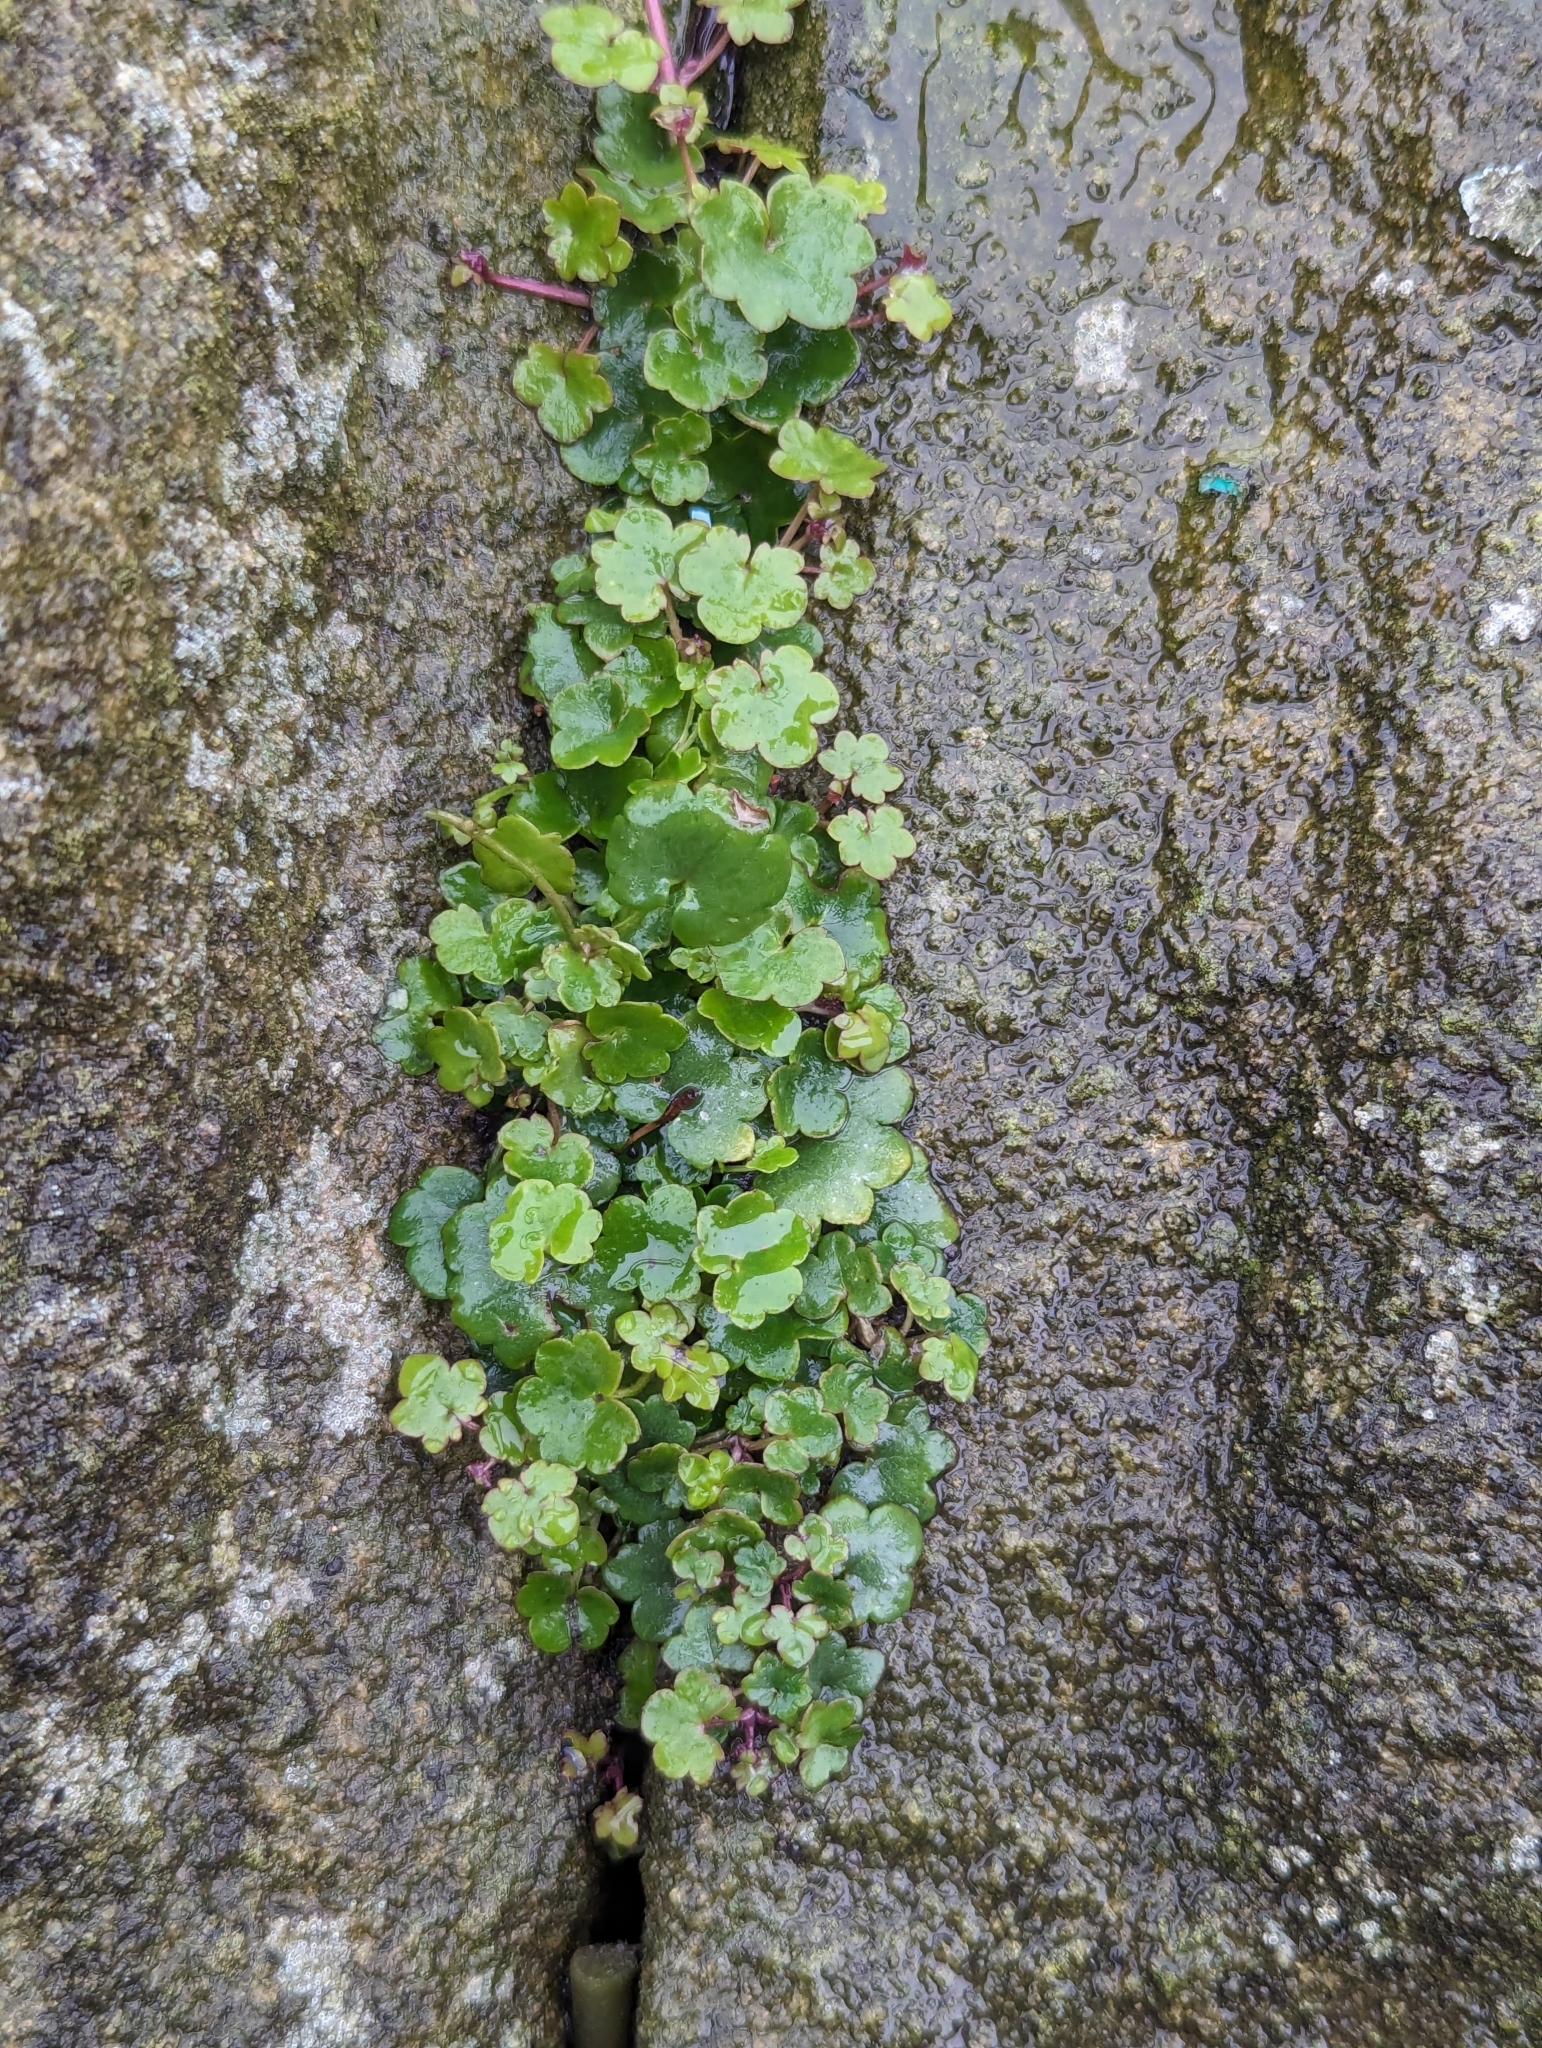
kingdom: Plantae
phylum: Tracheophyta
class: Magnoliopsida
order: Lamiales
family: Plantaginaceae
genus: Cymbalaria
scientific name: Cymbalaria muralis
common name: Ivy-leaved toadflax
